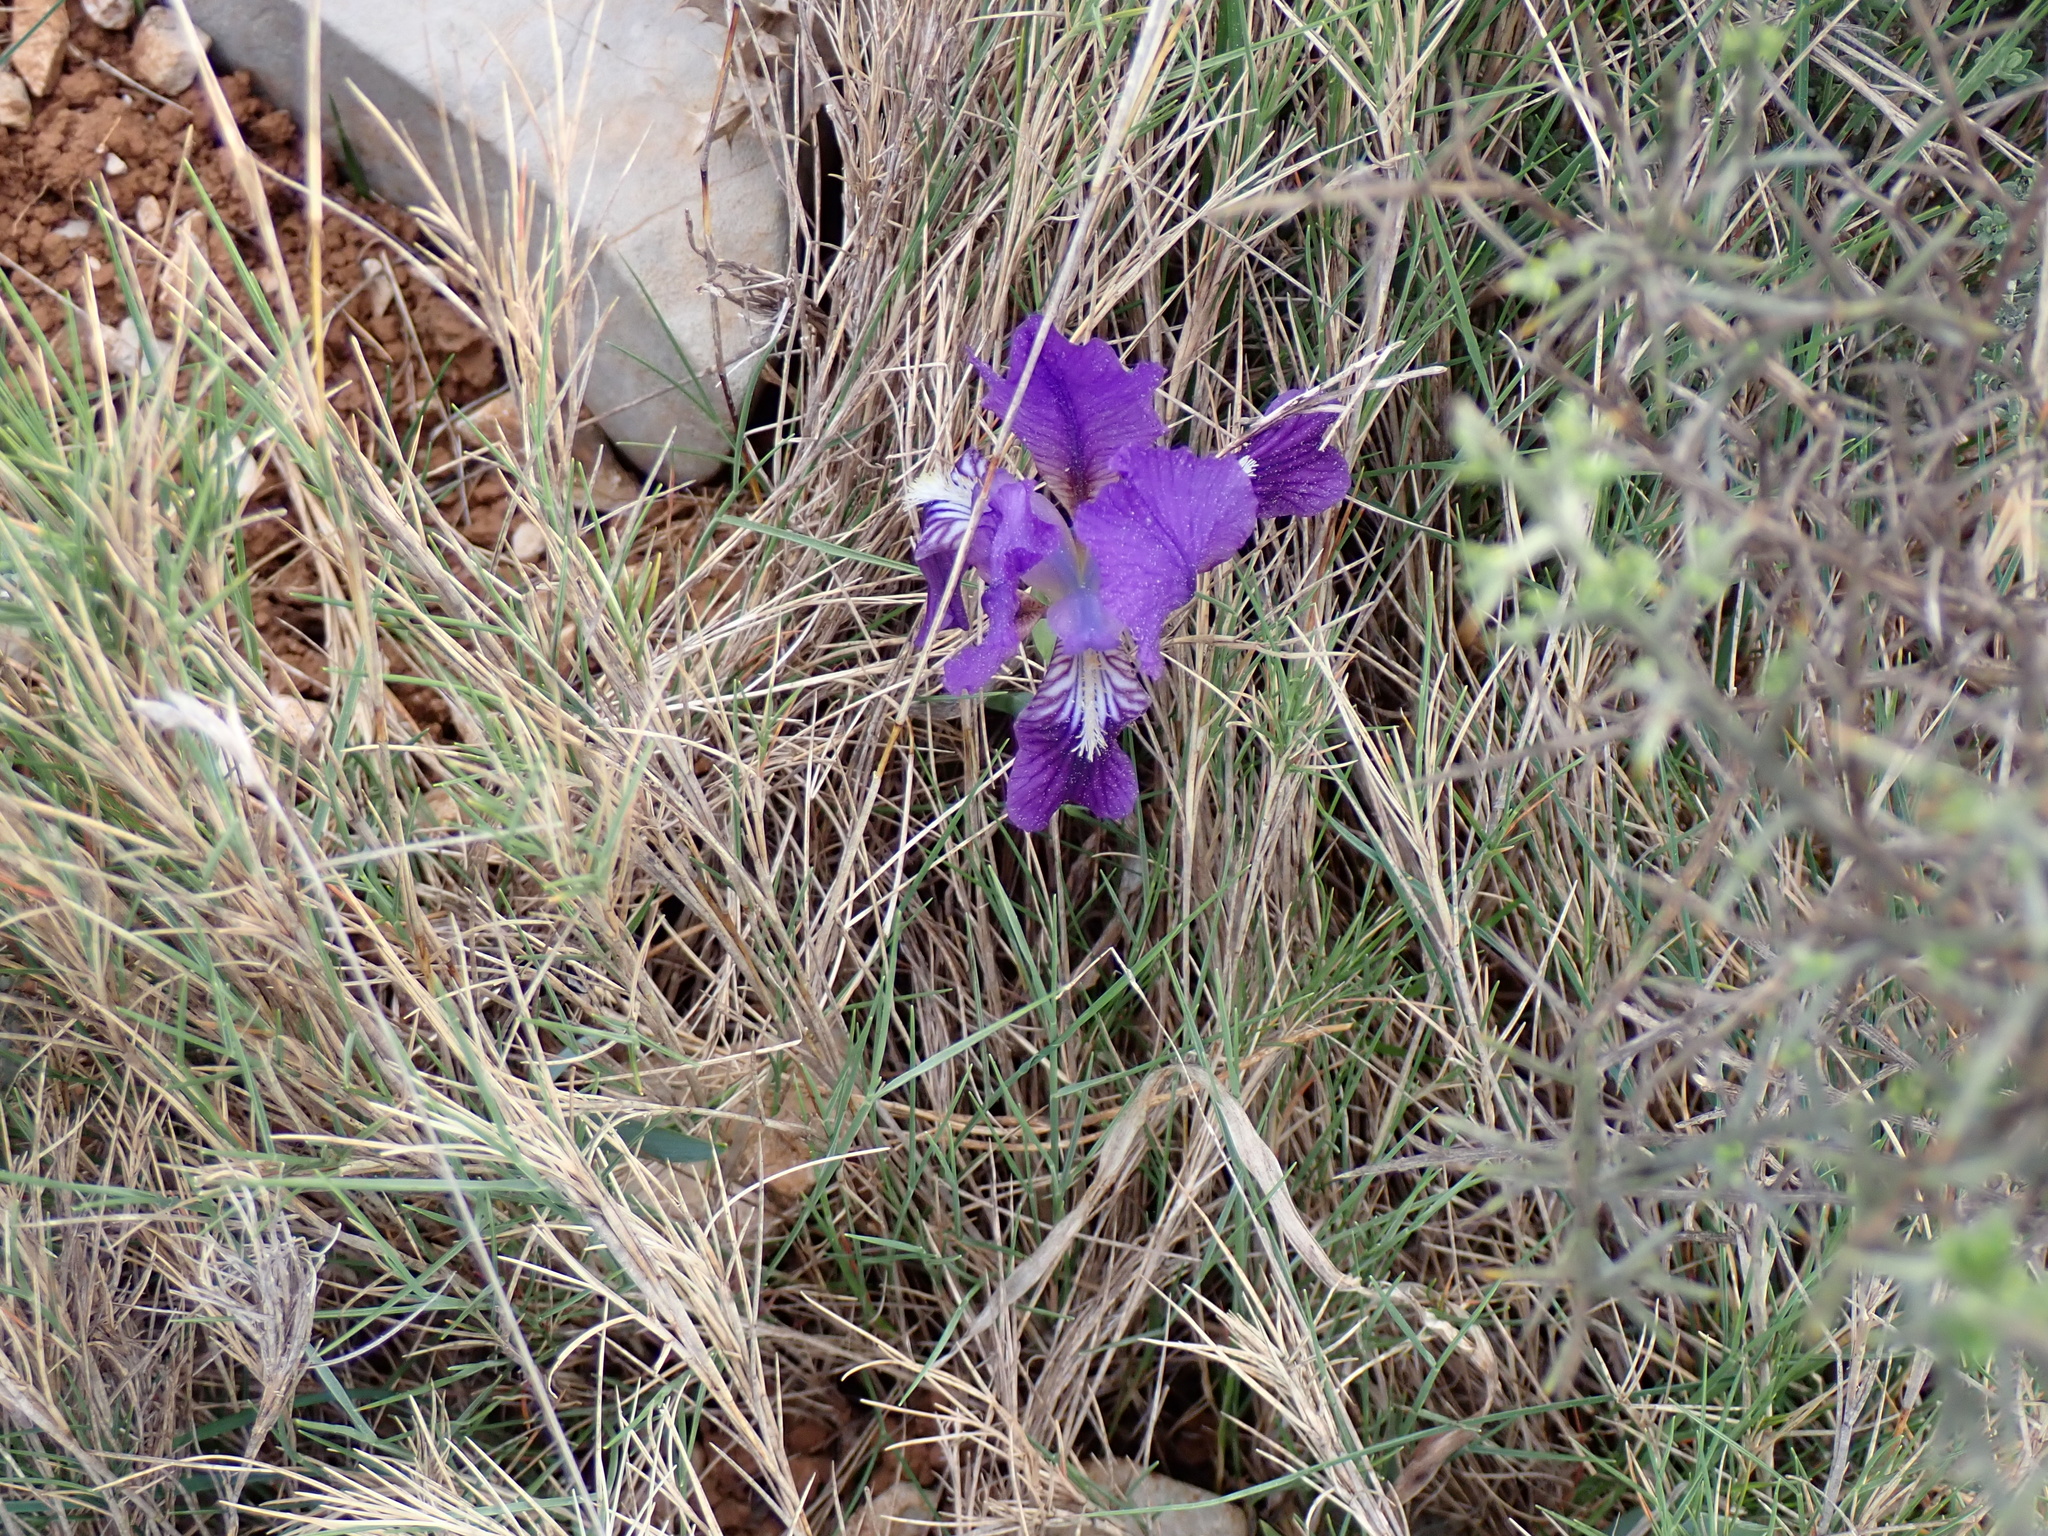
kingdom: Plantae
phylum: Tracheophyta
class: Liliopsida
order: Asparagales
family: Iridaceae
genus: Iris
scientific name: Iris lutescens
